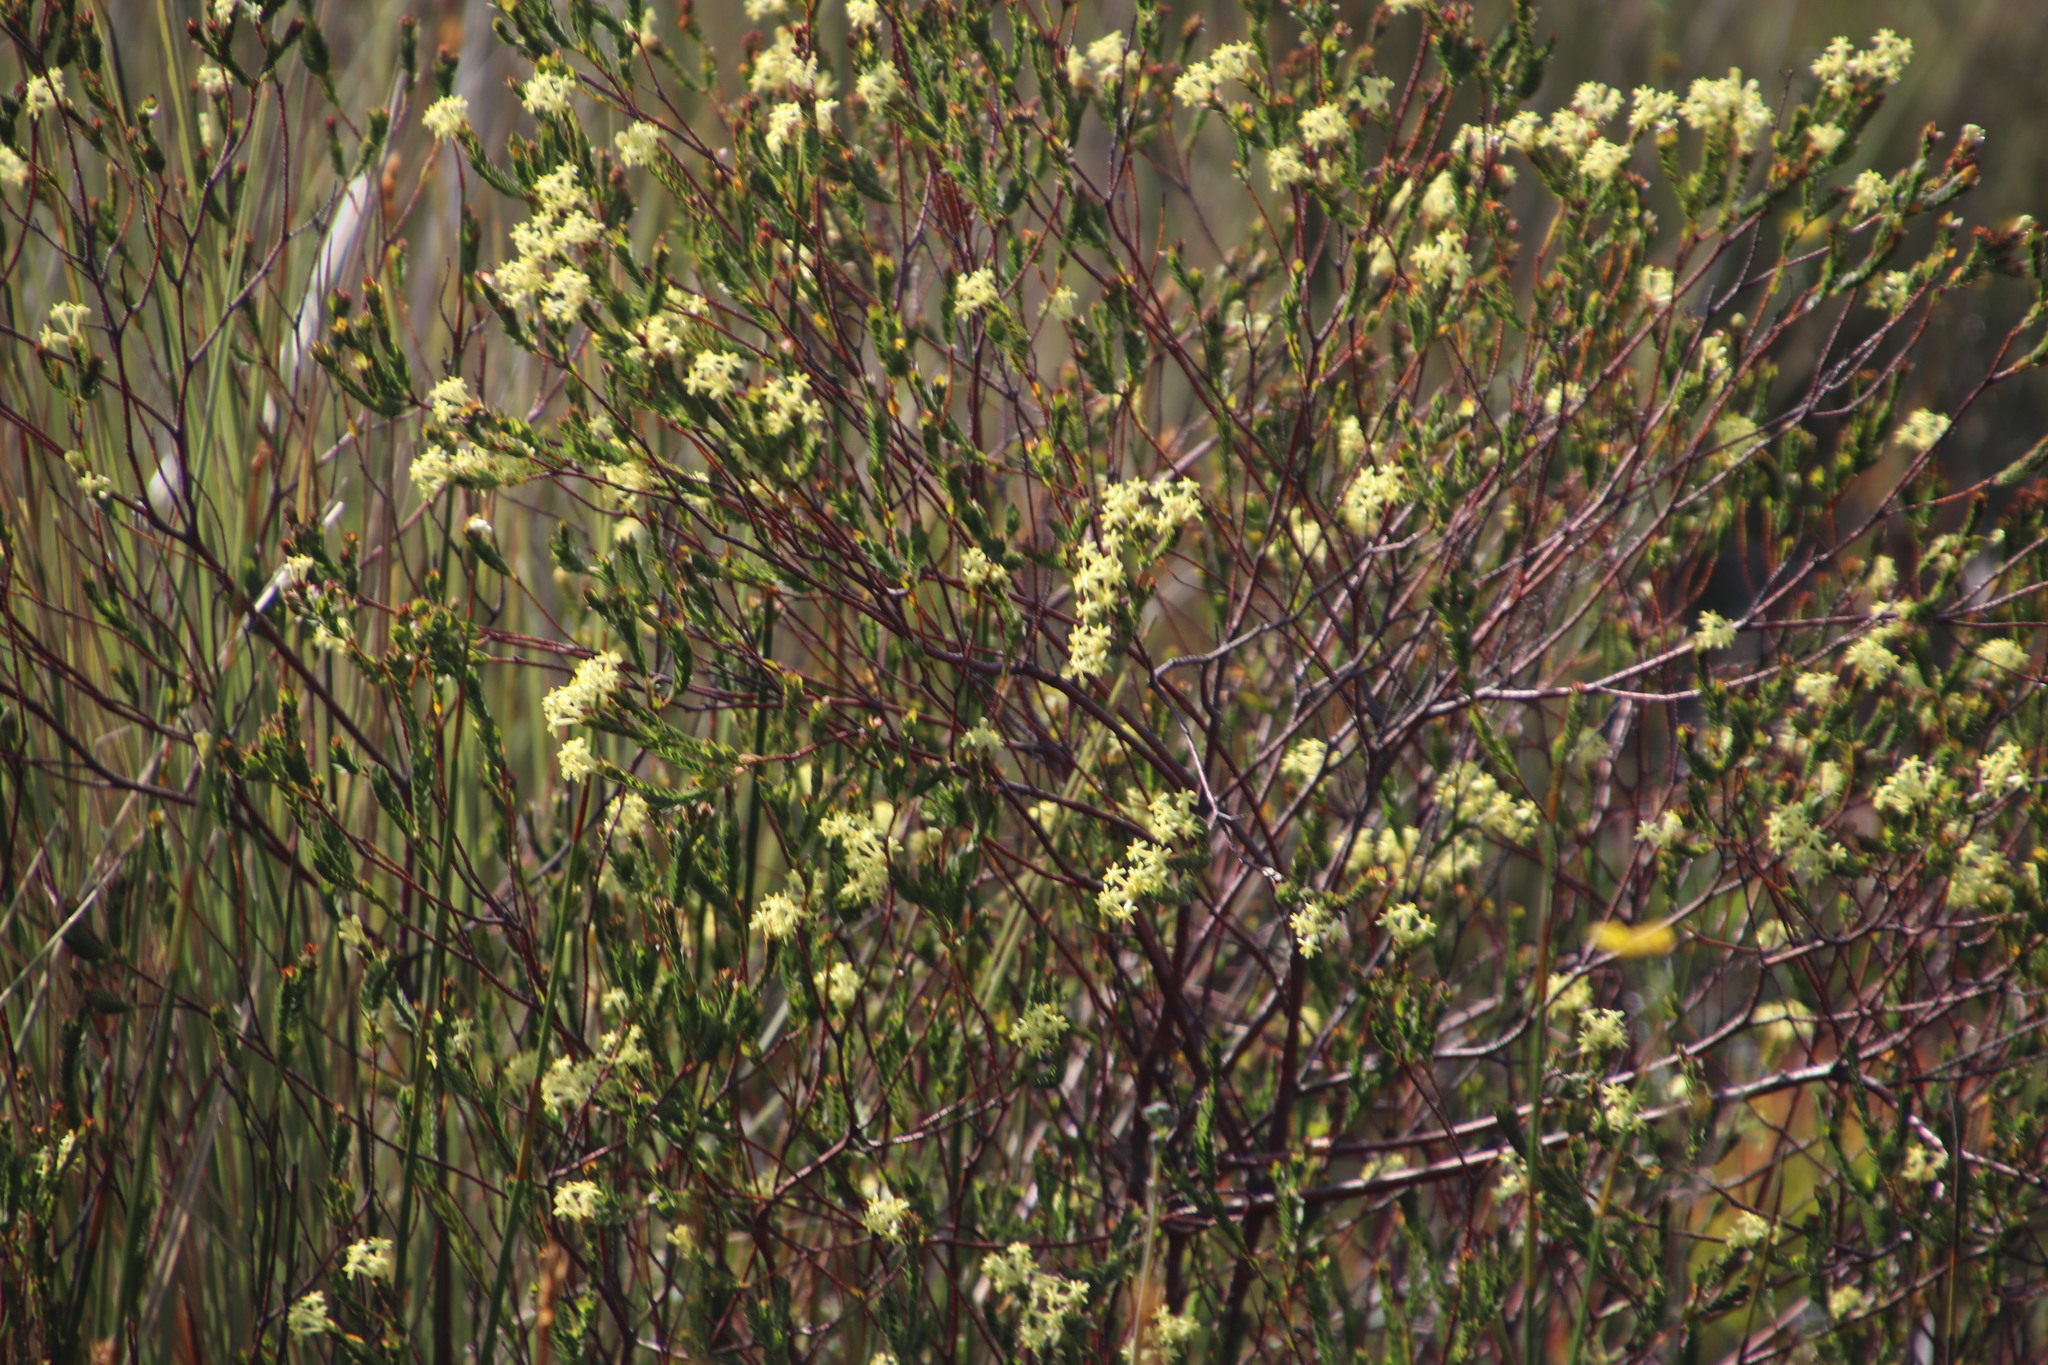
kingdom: Plantae
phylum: Tracheophyta
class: Magnoliopsida
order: Malvales
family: Thymelaeaceae
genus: Gnidia
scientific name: Gnidia oppositifolia
